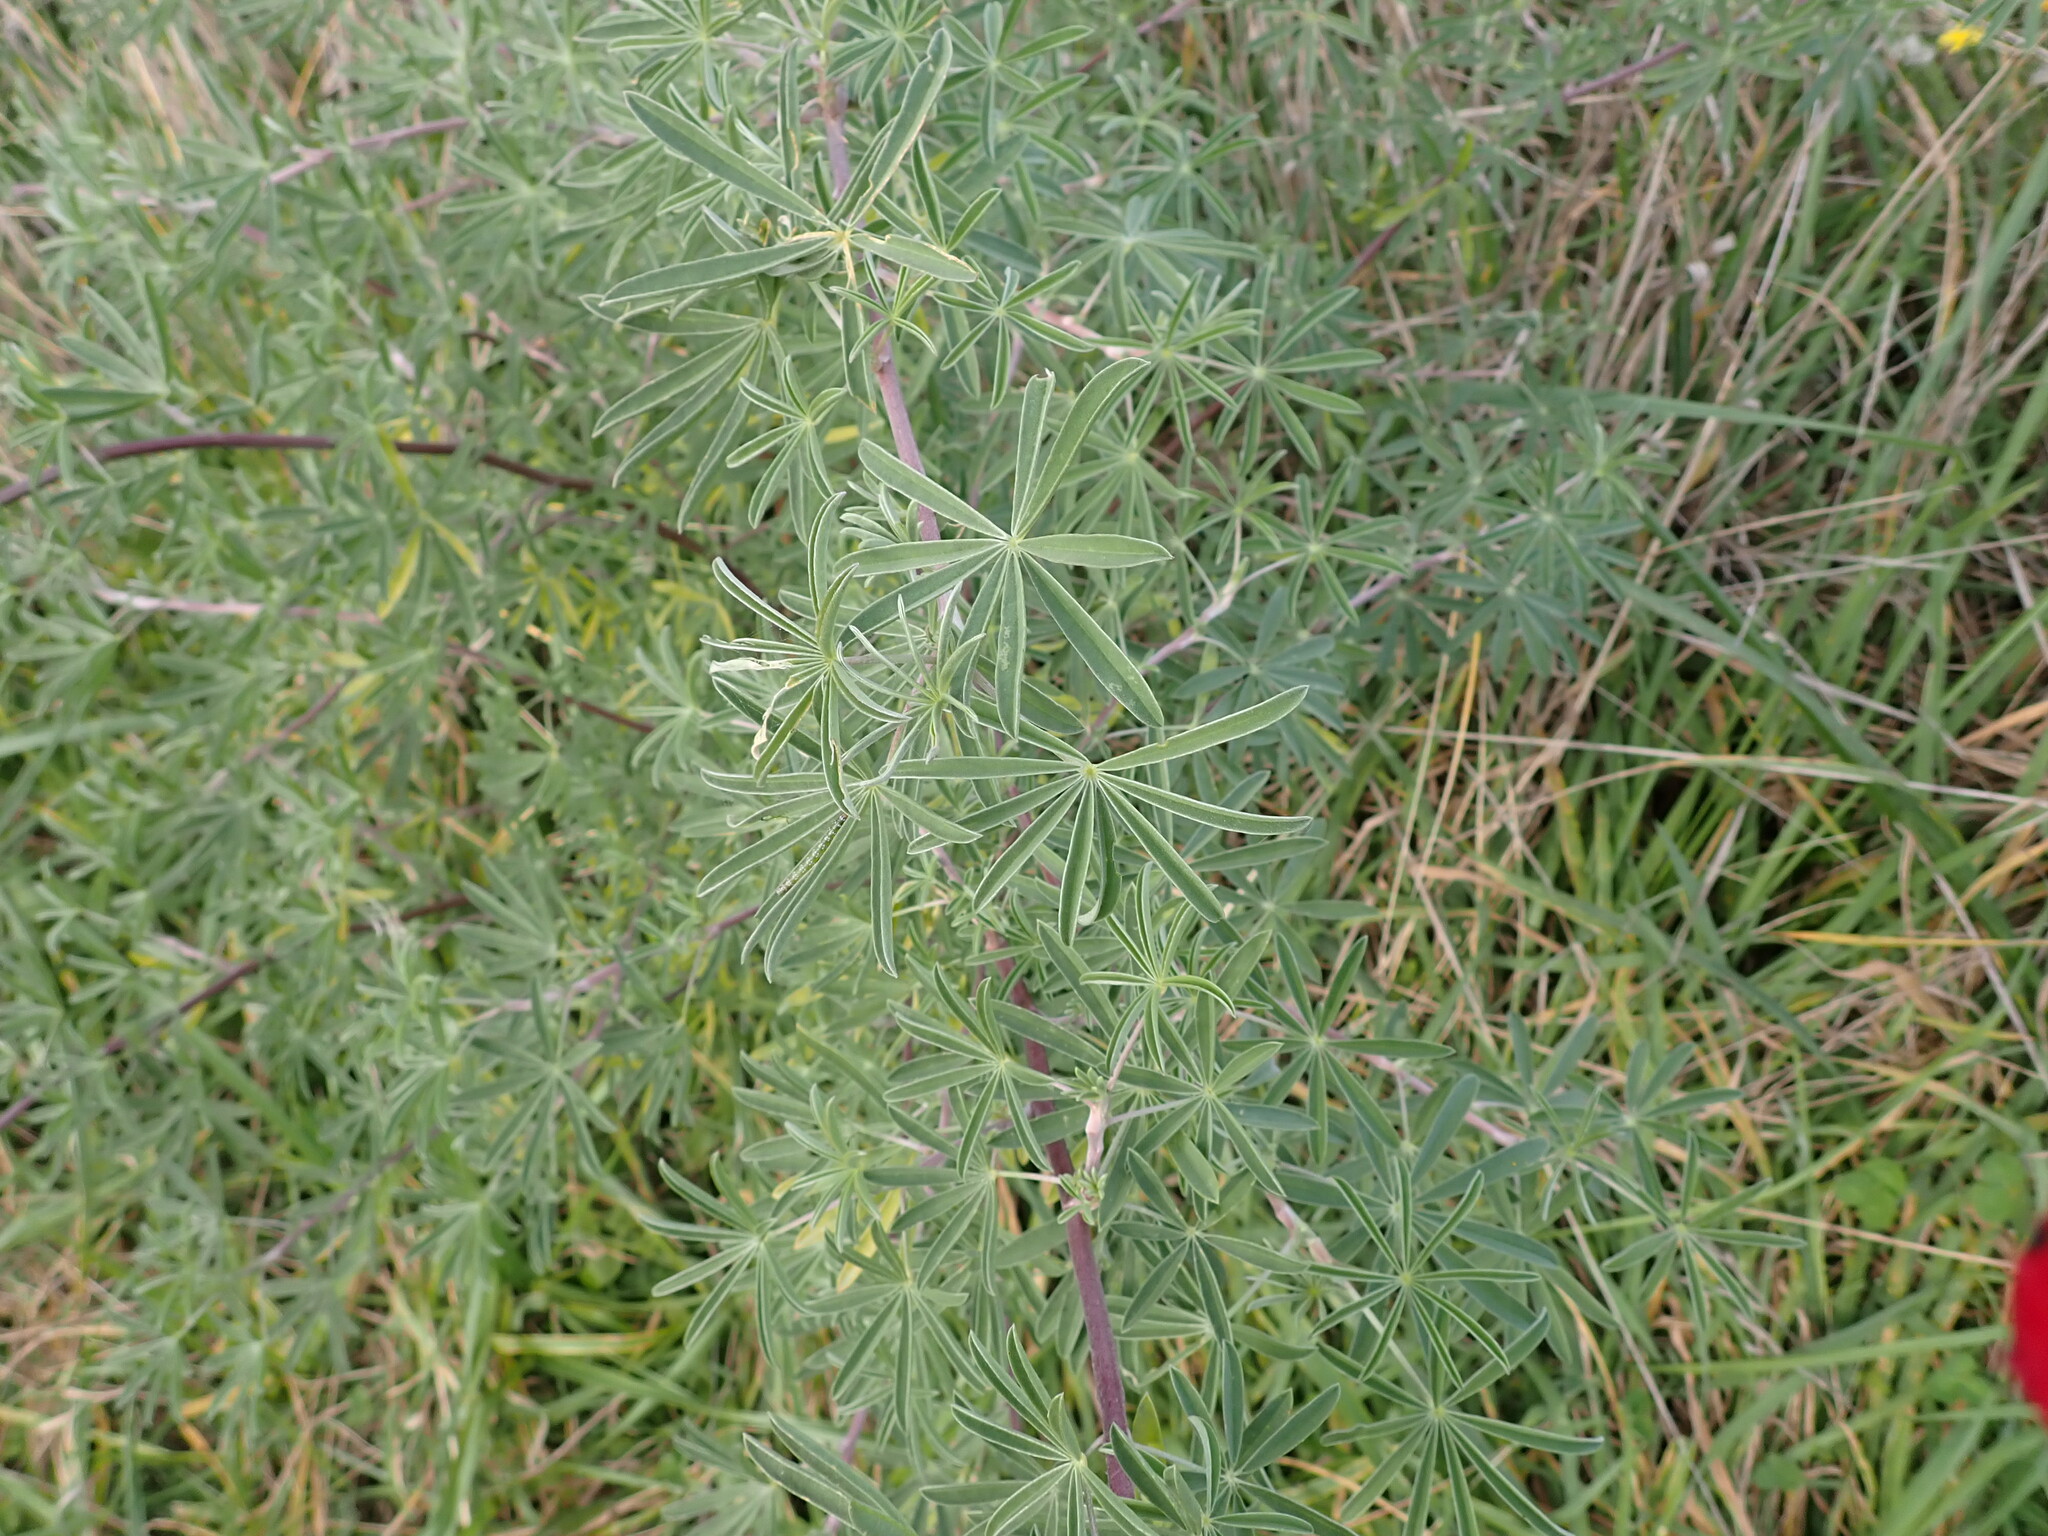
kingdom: Plantae
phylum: Tracheophyta
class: Magnoliopsida
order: Fabales
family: Fabaceae
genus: Lupinus
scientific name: Lupinus arboreus
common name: Yellow bush lupine
